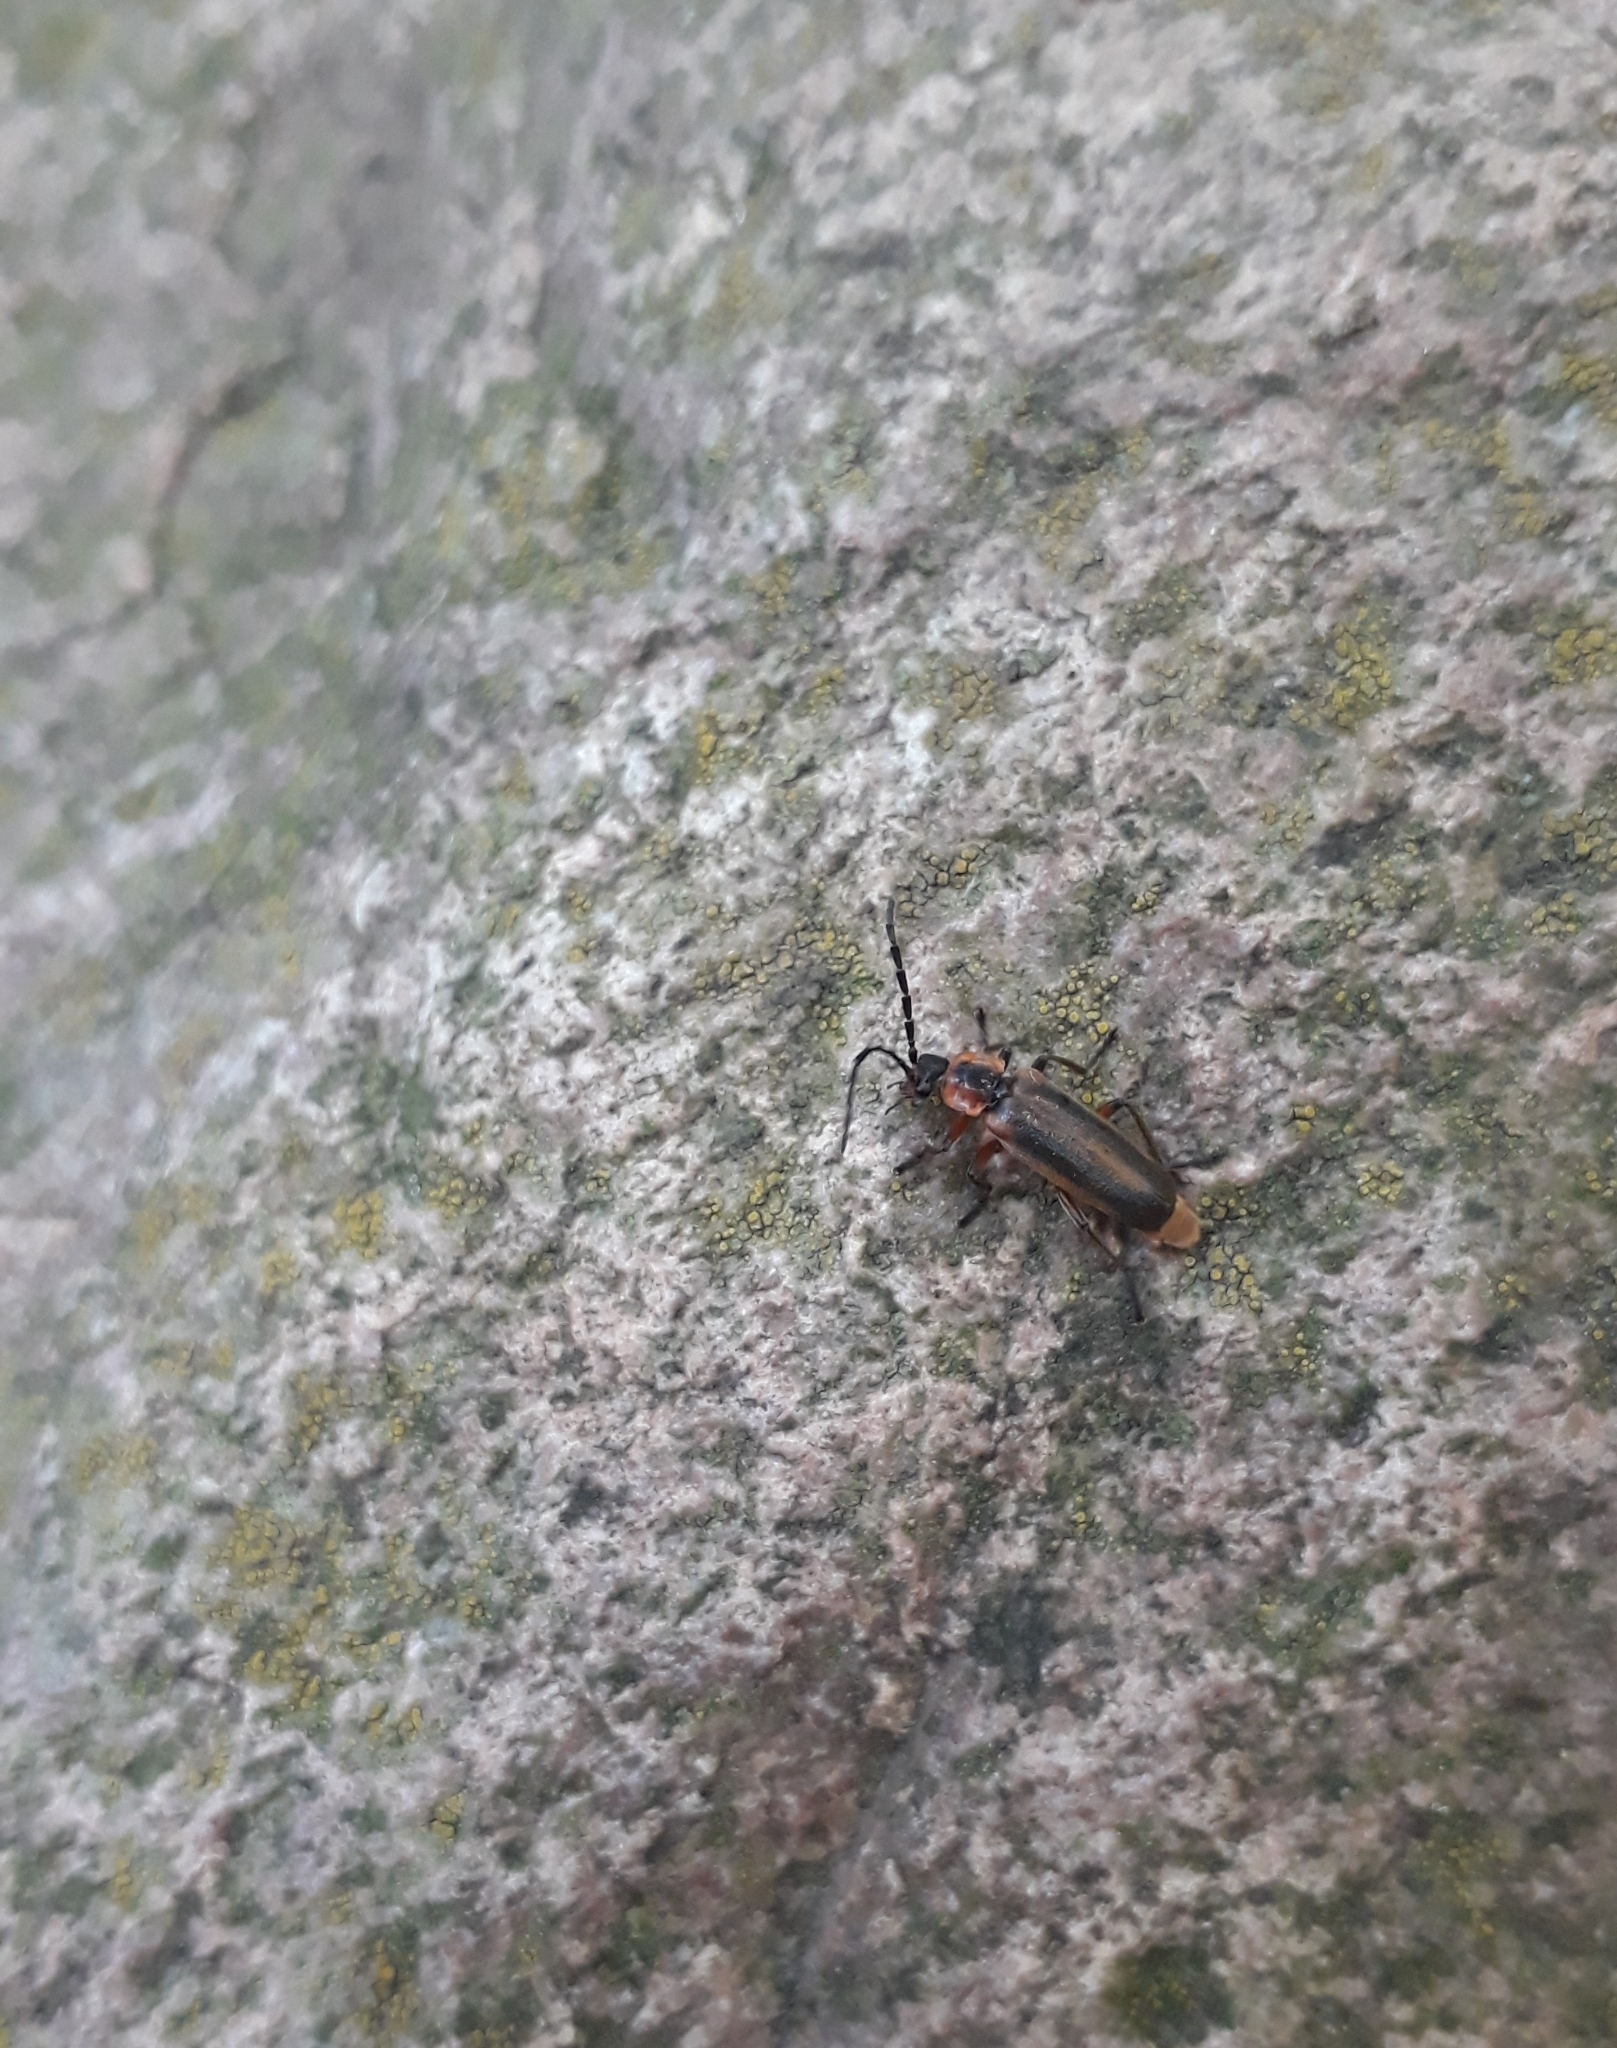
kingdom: Animalia
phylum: Arthropoda
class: Insecta
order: Coleoptera
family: Cantharidae
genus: Discodon
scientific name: Discodon
